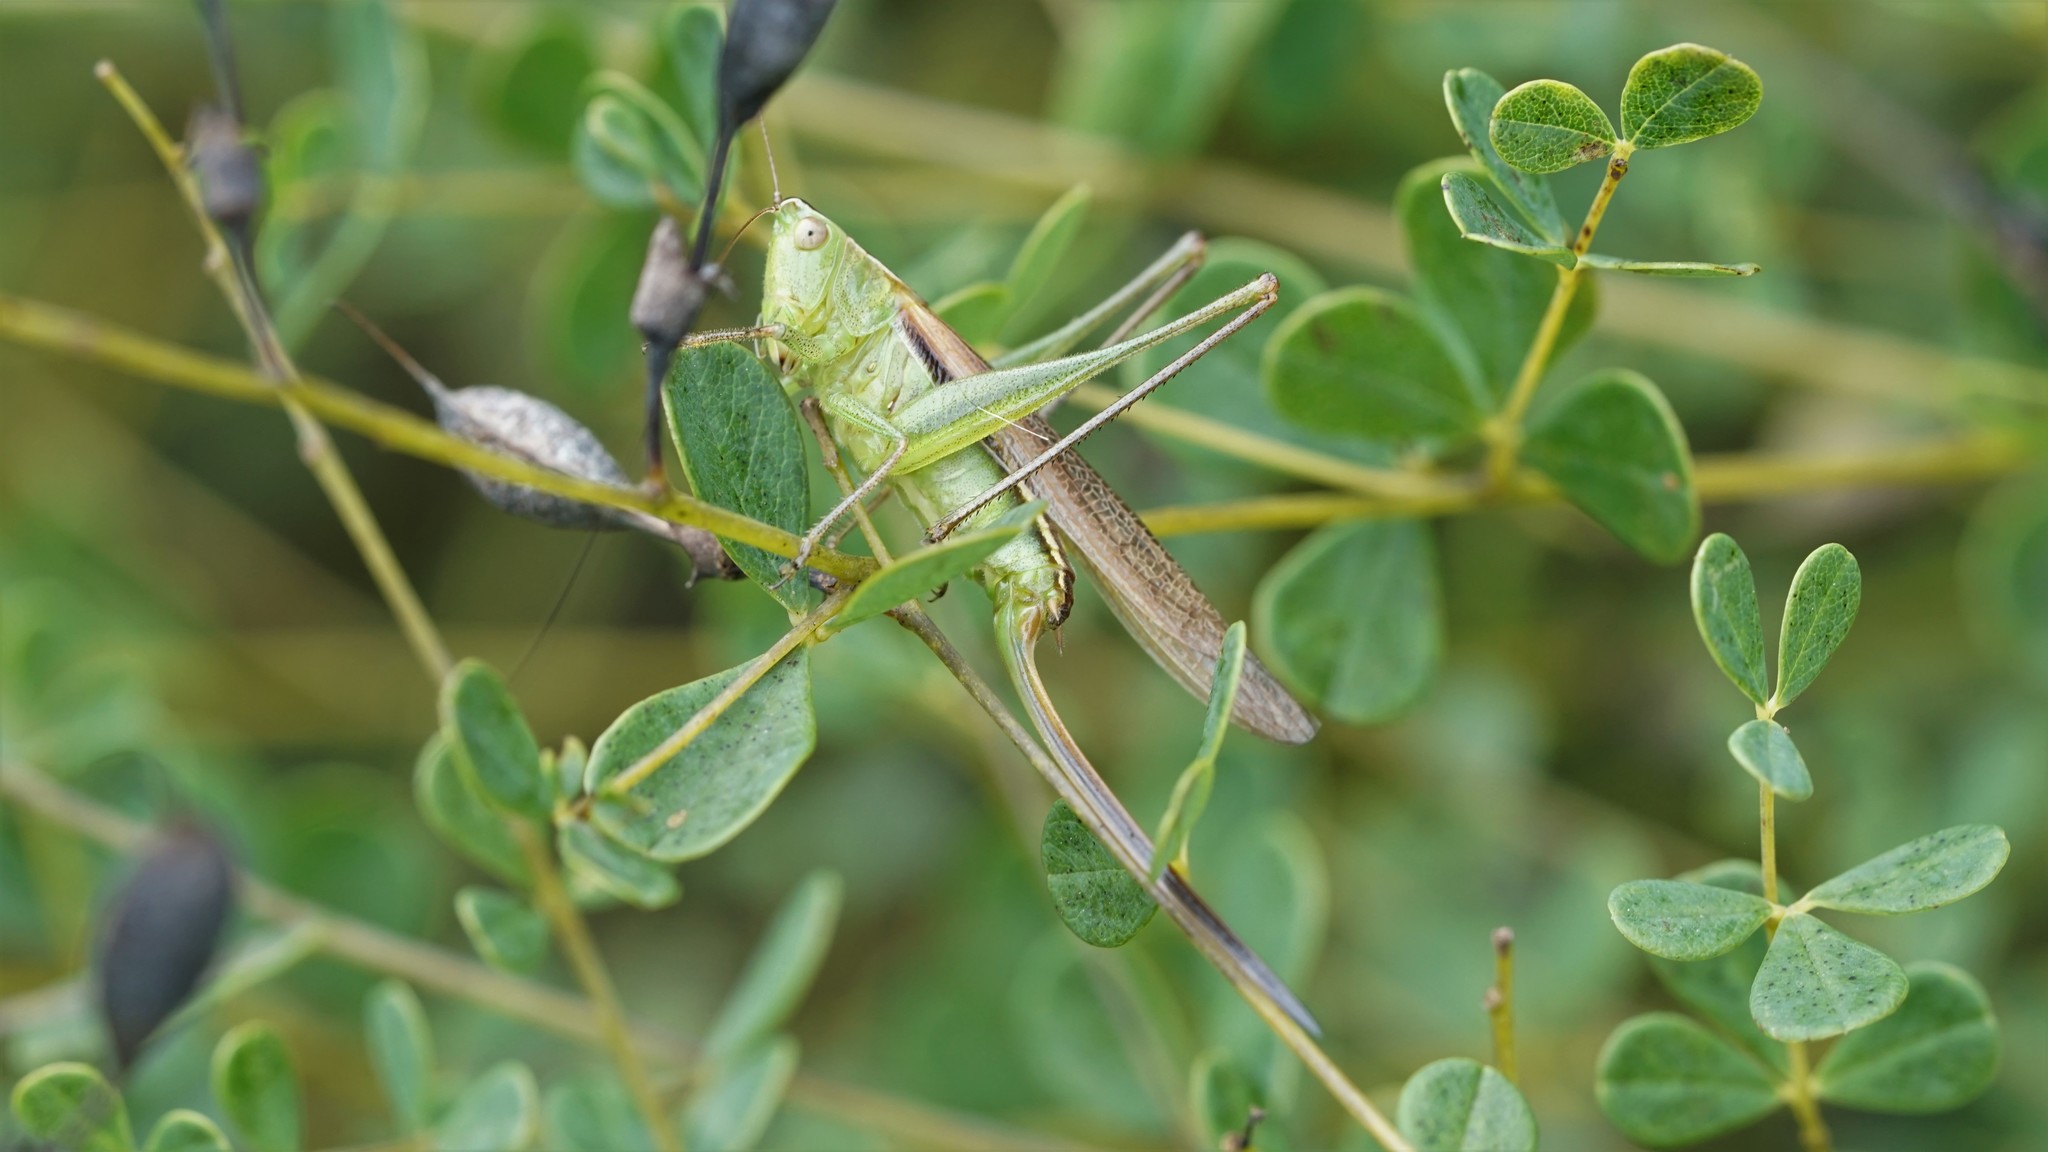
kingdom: Animalia
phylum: Arthropoda
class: Insecta
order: Orthoptera
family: Tettigoniidae
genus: Conocephalus
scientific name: Conocephalus strictus
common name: Straight-lanced katydid
